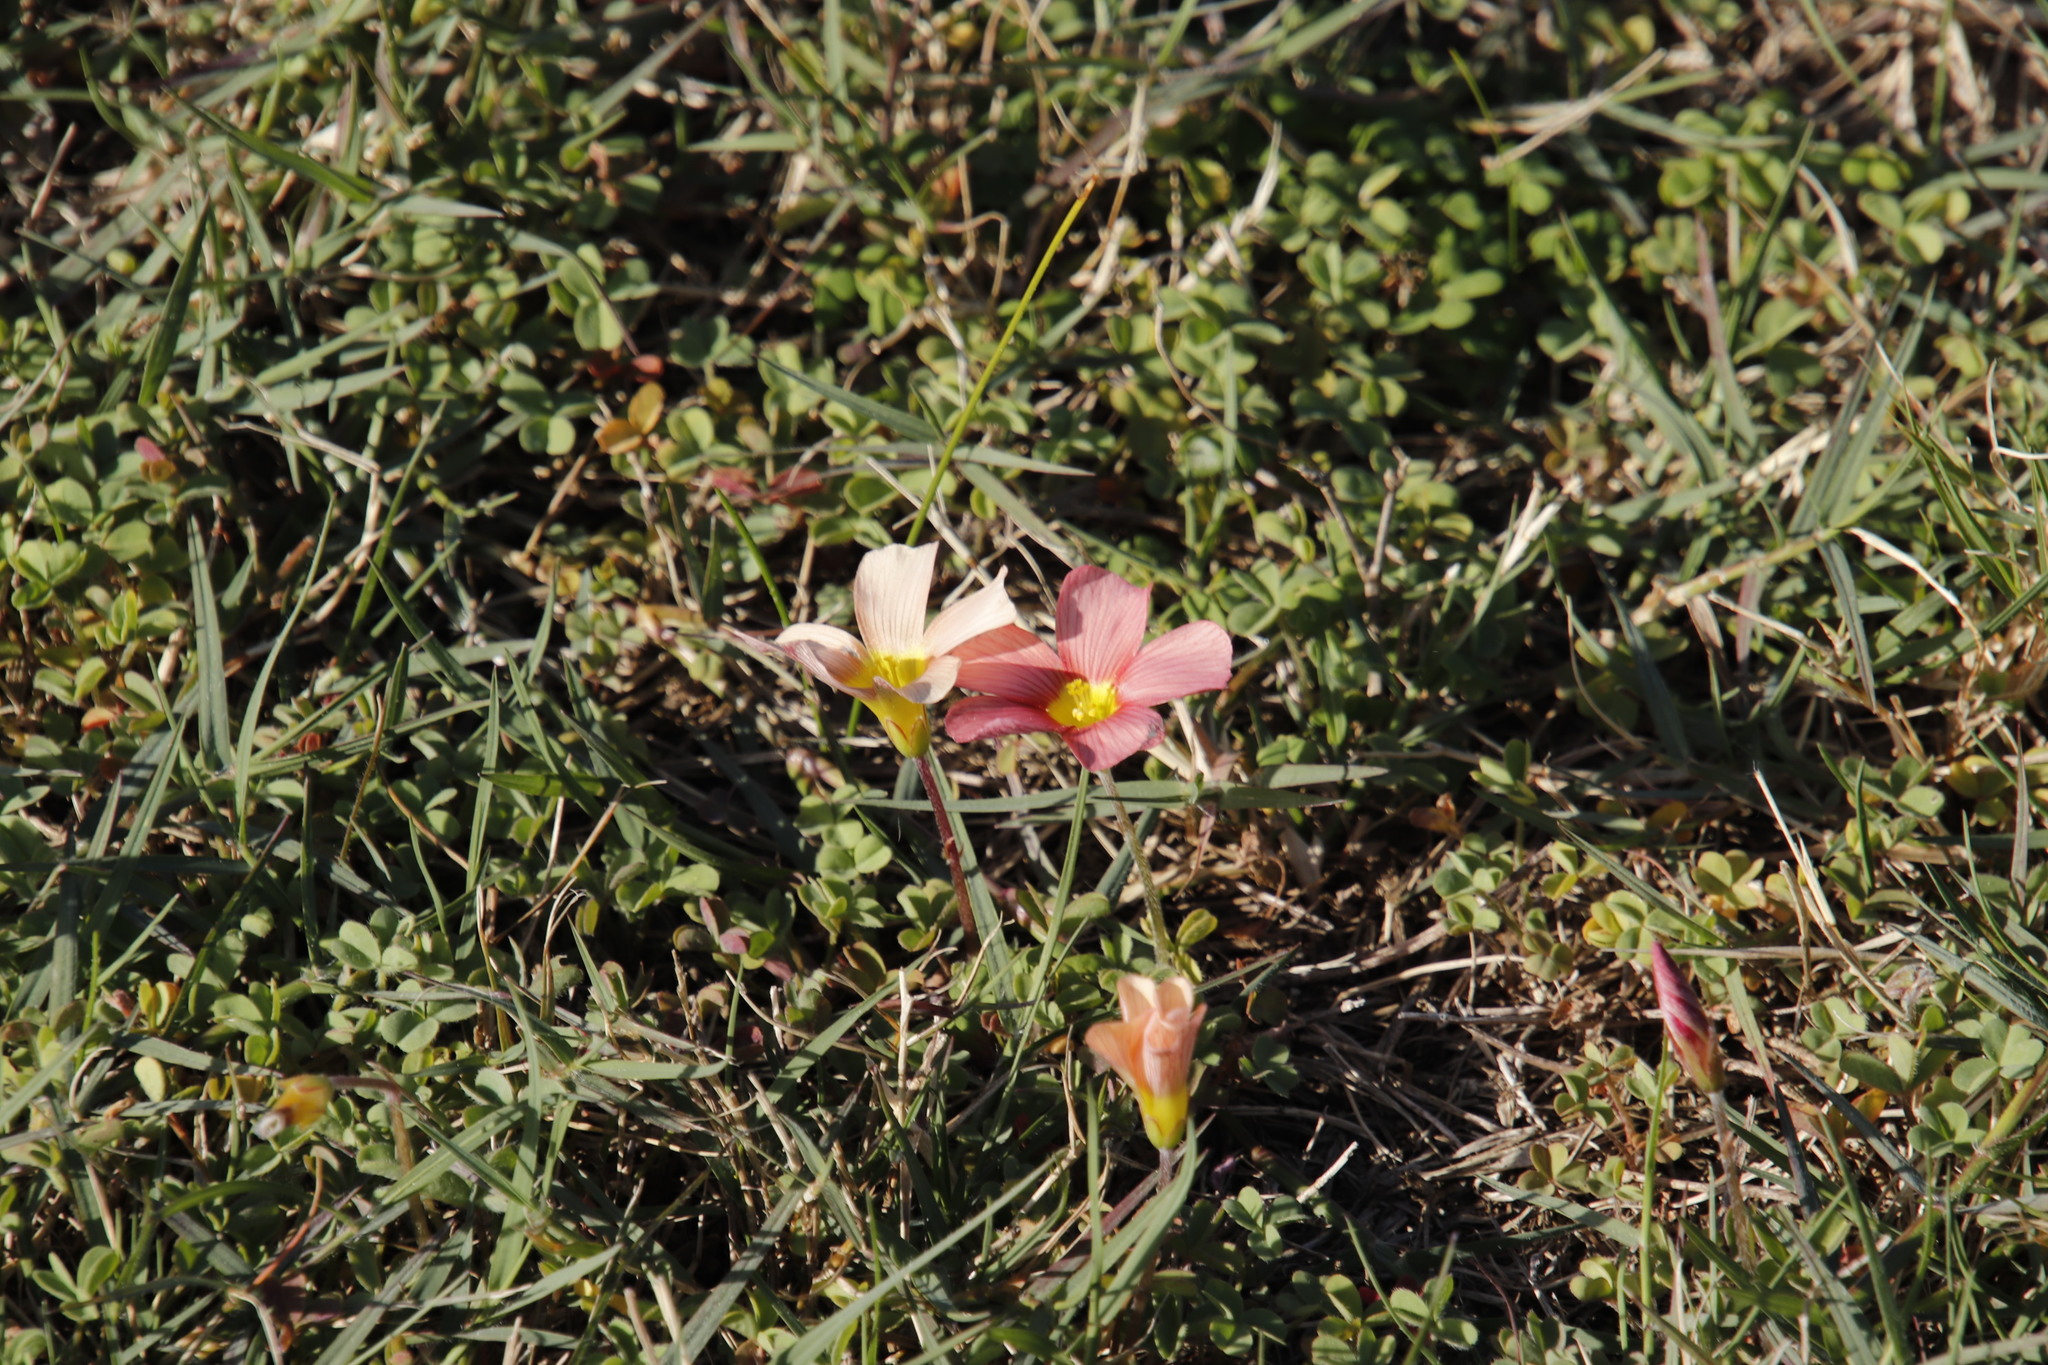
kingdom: Plantae
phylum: Tracheophyta
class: Magnoliopsida
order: Oxalidales
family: Oxalidaceae
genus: Oxalis
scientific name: Oxalis obtusa
